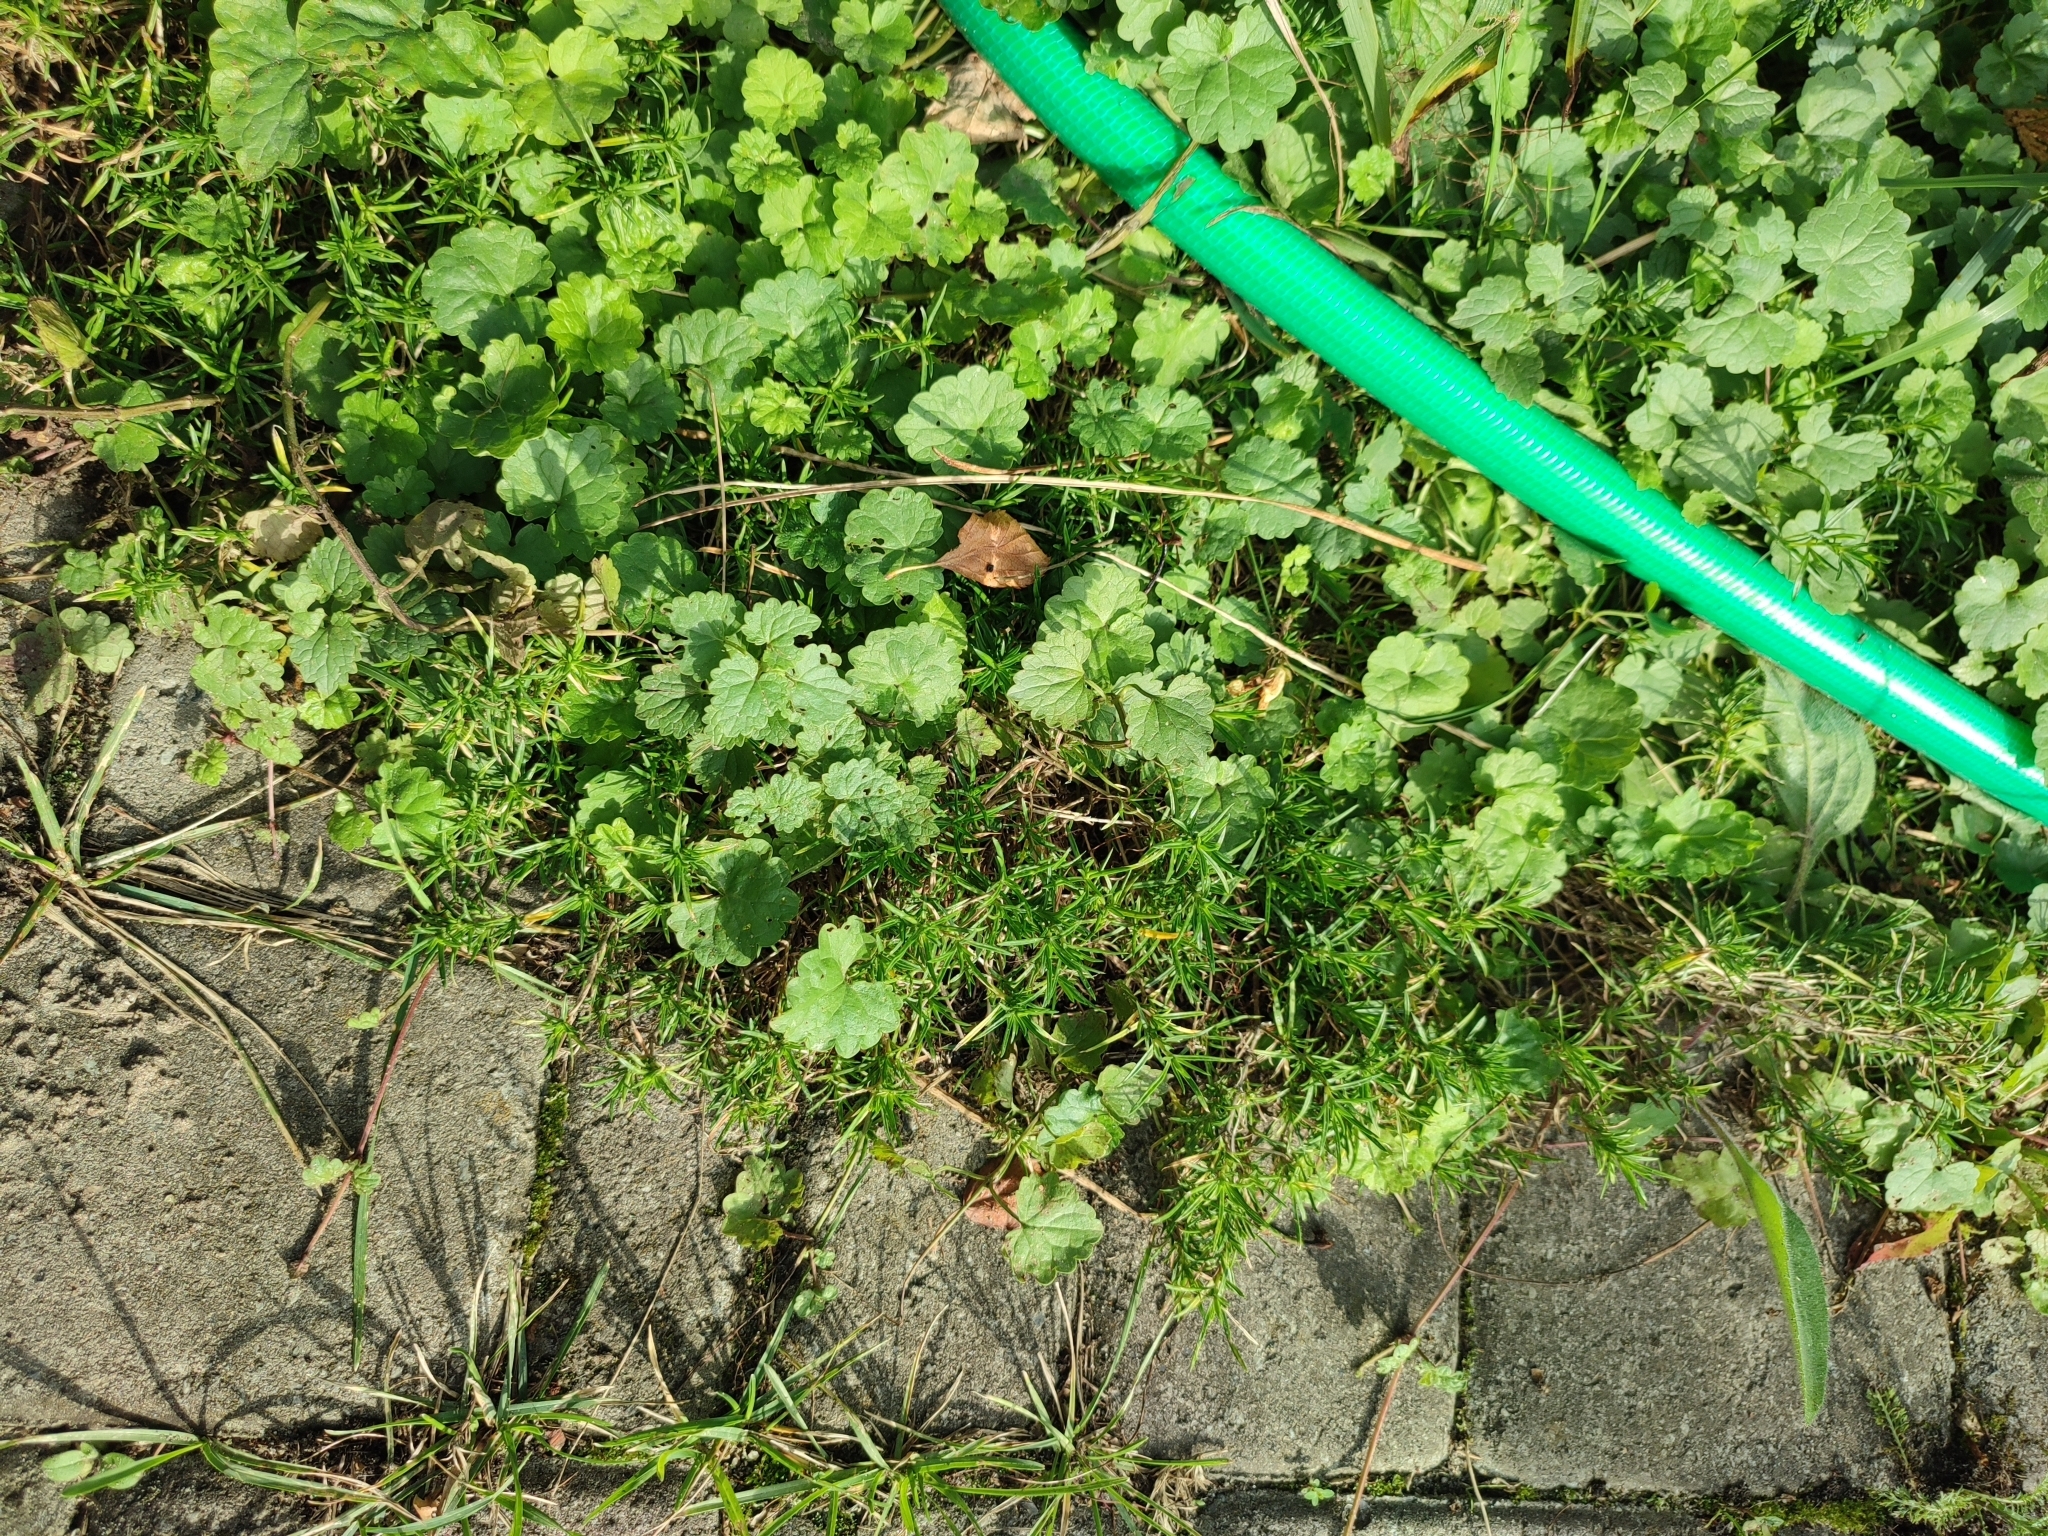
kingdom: Plantae
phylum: Tracheophyta
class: Magnoliopsida
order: Lamiales
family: Lamiaceae
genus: Glechoma
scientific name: Glechoma hederacea
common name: Ground ivy
